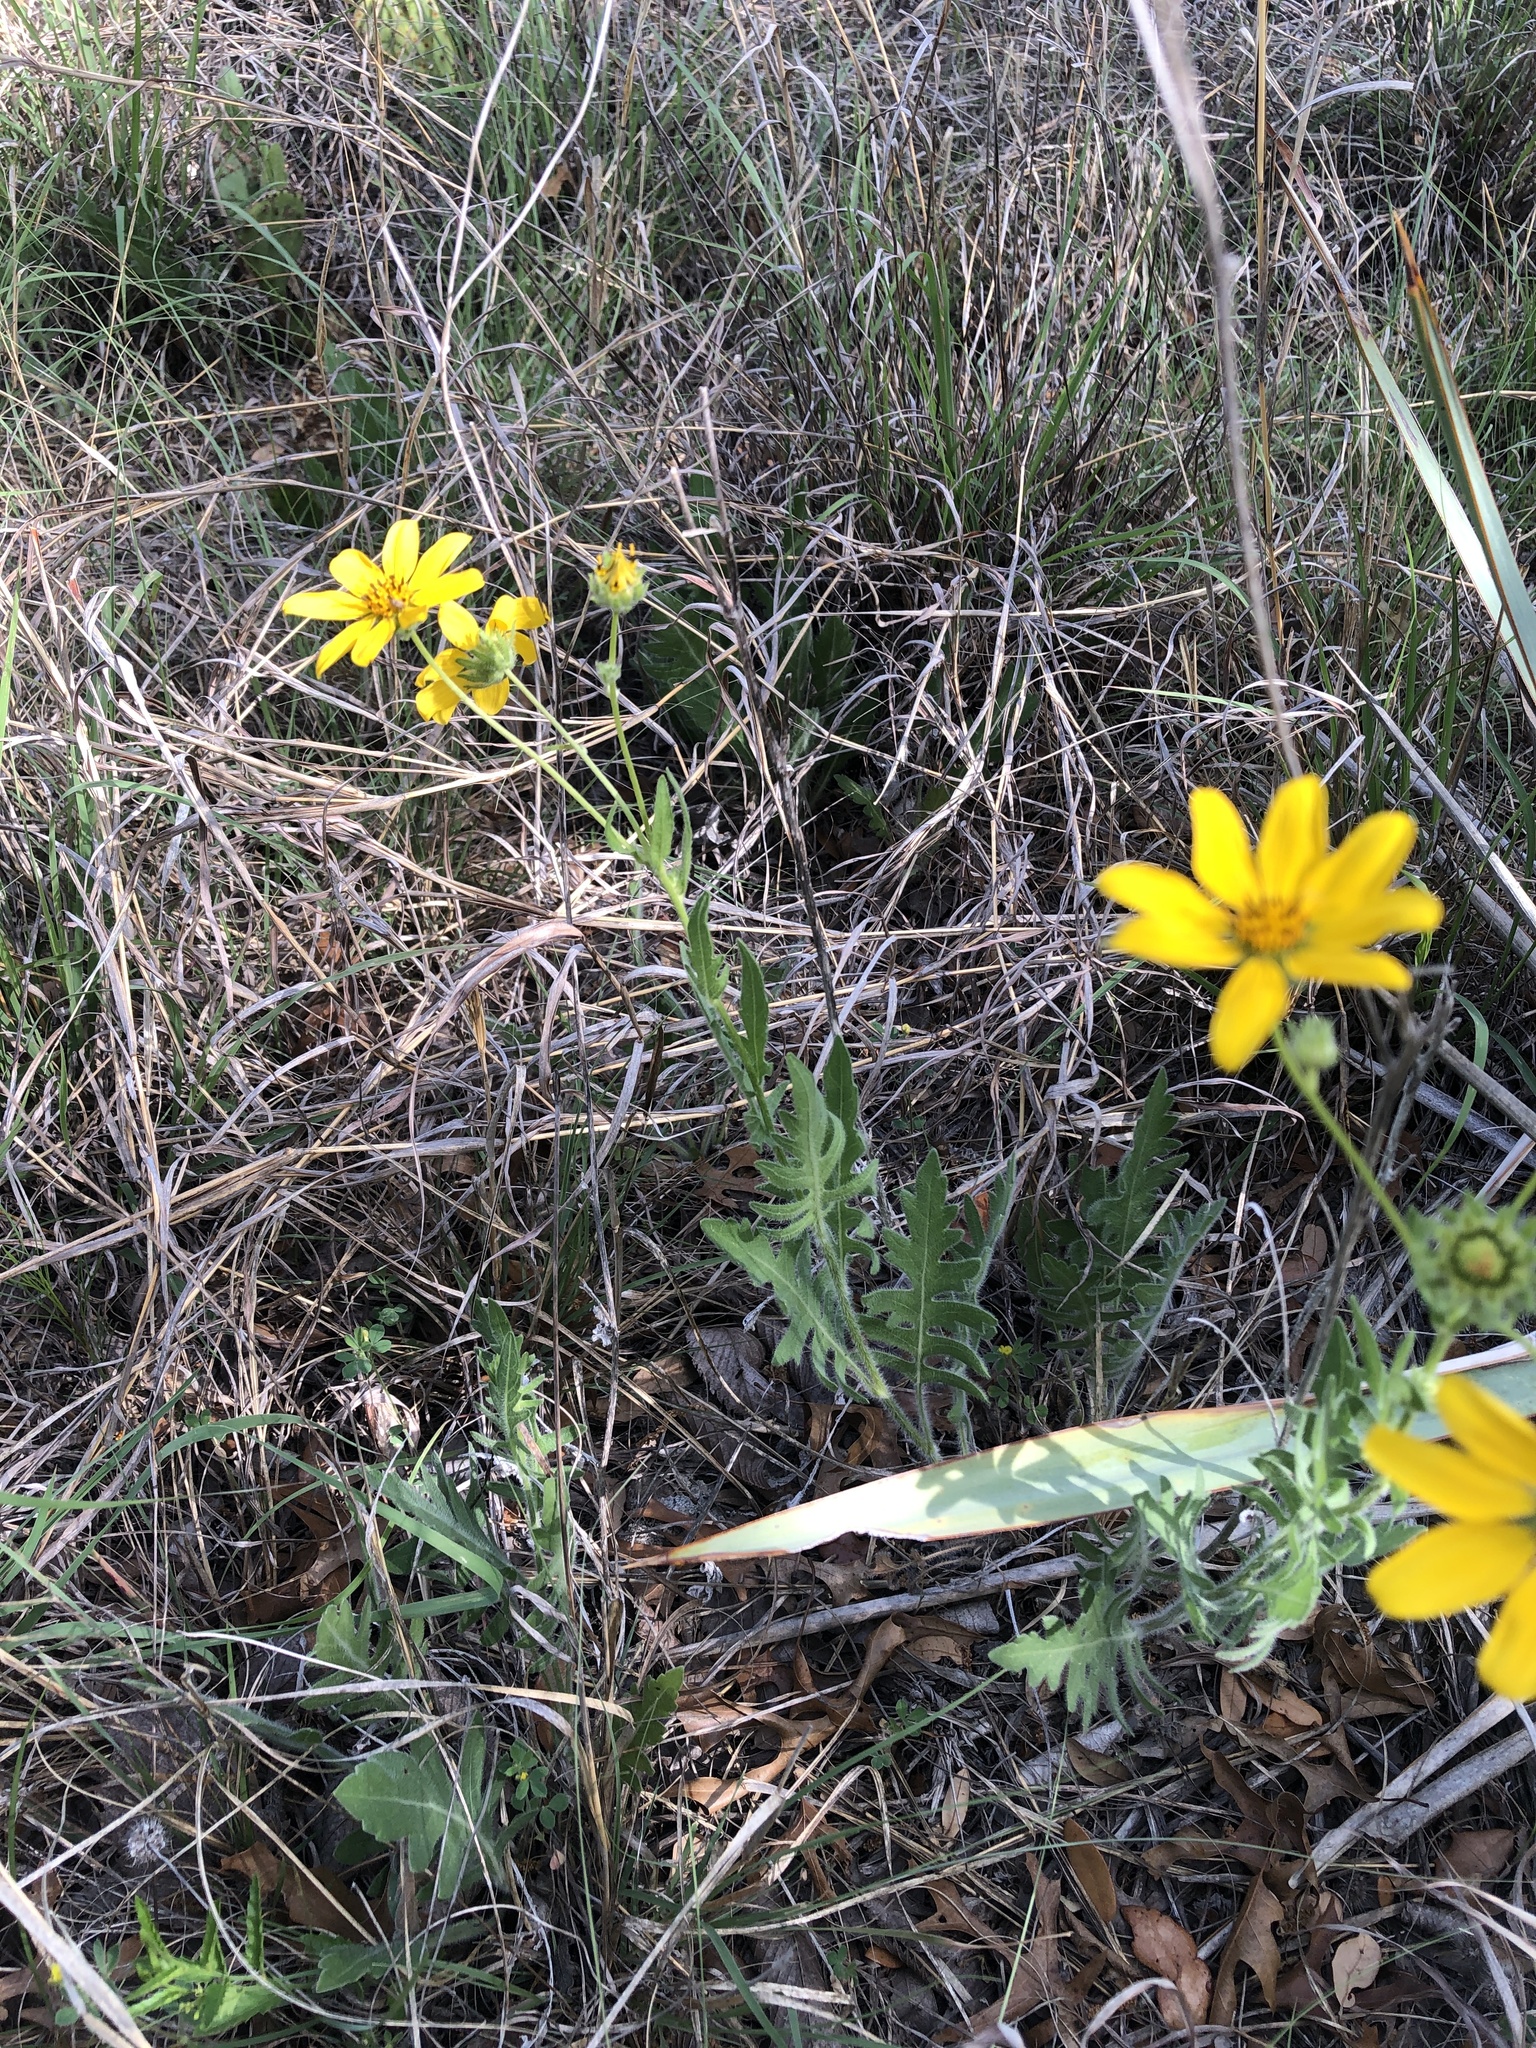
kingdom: Plantae
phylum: Tracheophyta
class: Magnoliopsida
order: Asterales
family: Asteraceae
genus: Engelmannia
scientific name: Engelmannia peristenia
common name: Engelmann's daisy
